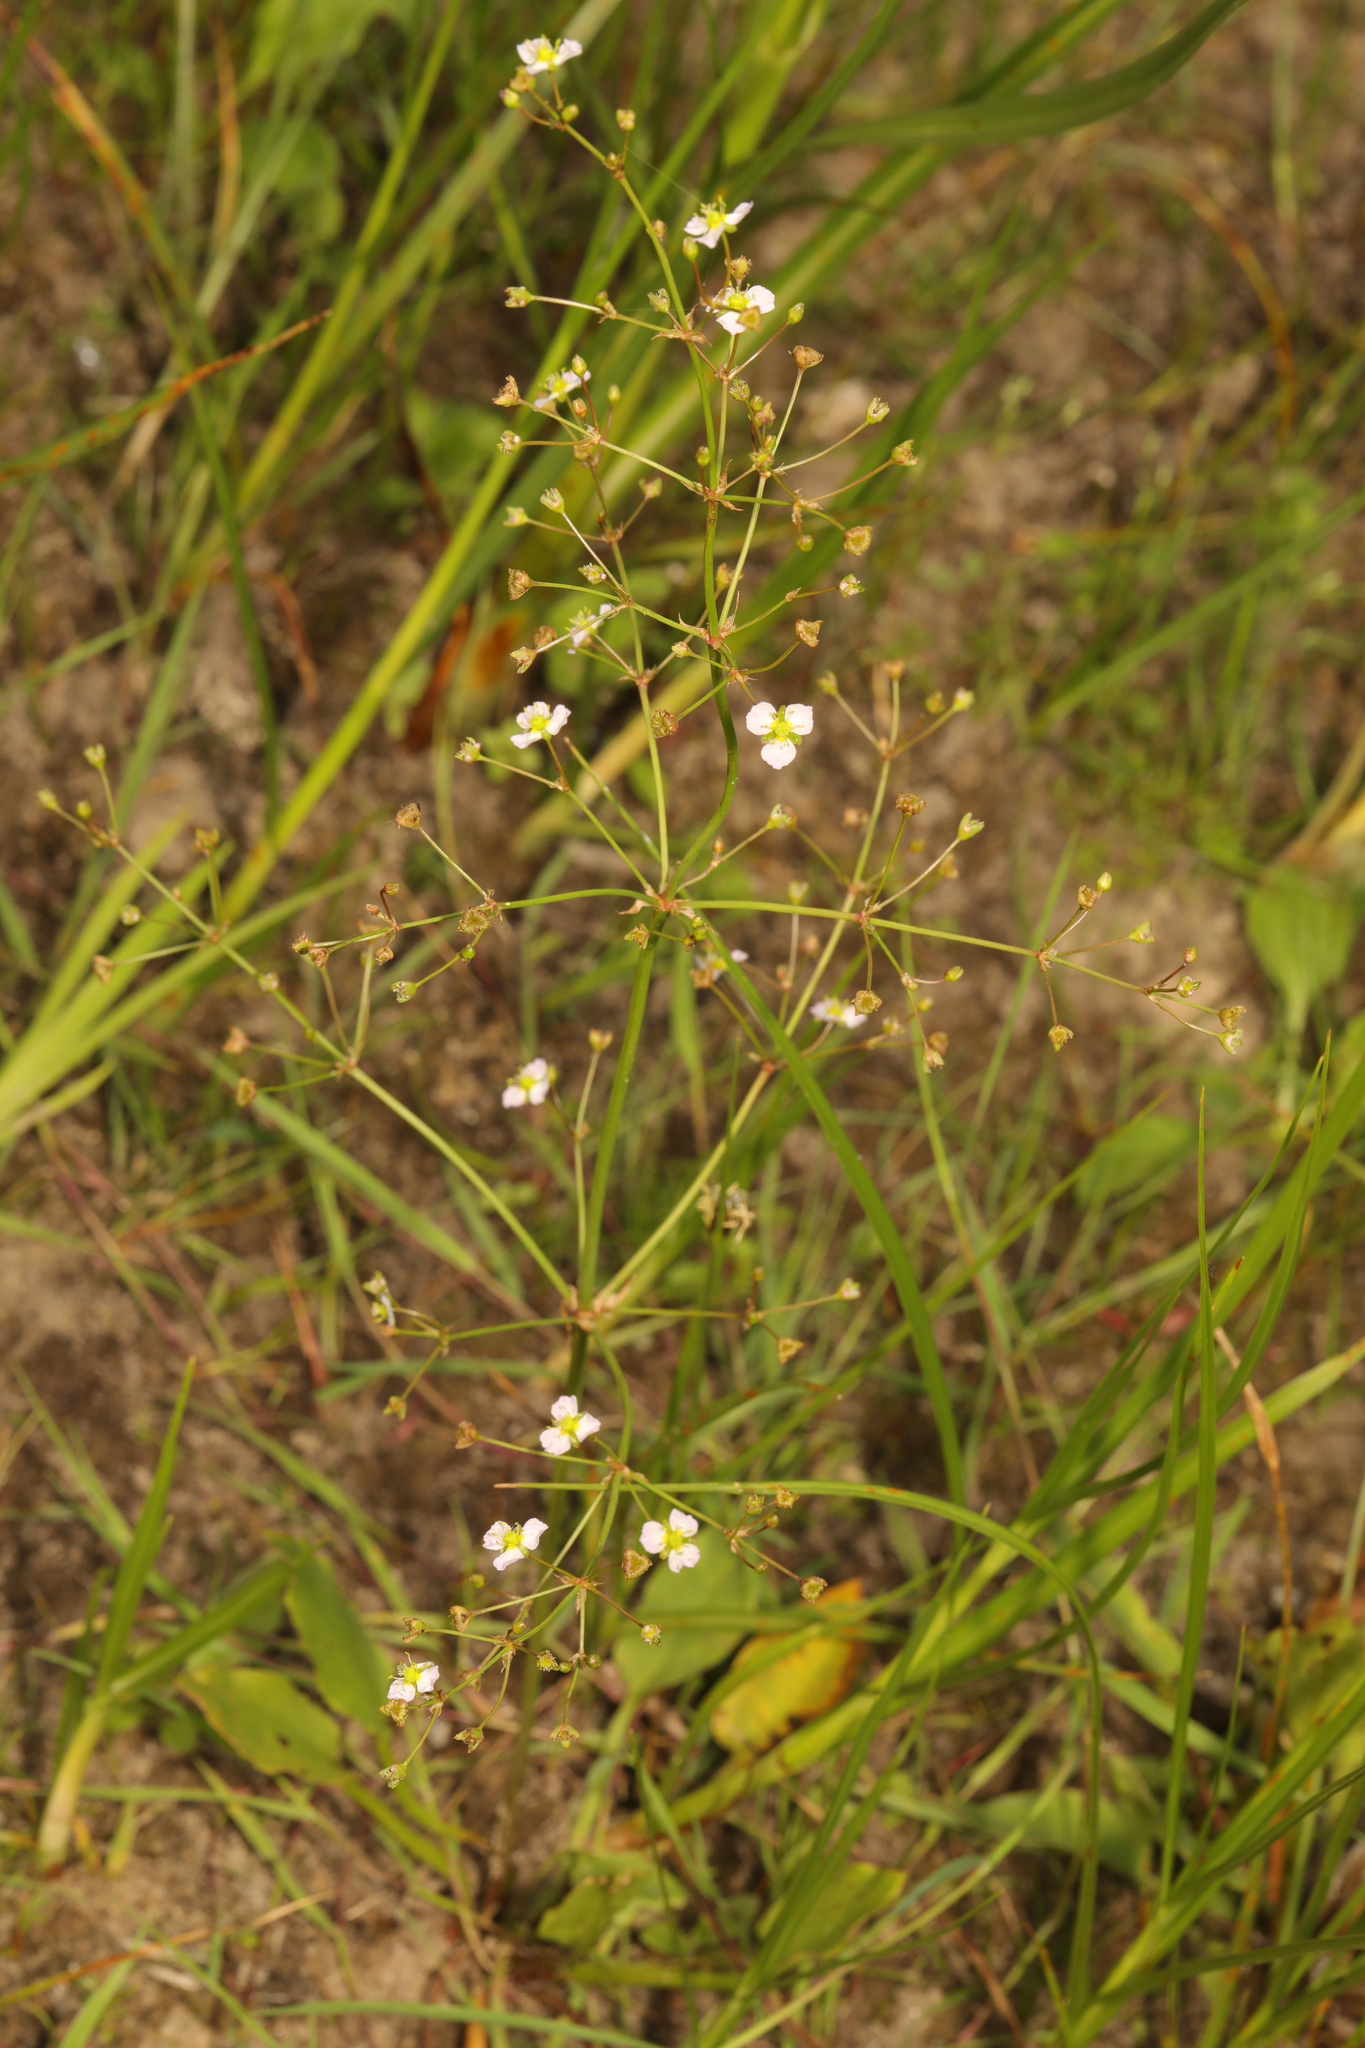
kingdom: Plantae
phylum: Tracheophyta
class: Liliopsida
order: Alismatales
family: Alismataceae
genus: Alisma
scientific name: Alisma plantago-aquatica
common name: Water-plantain
